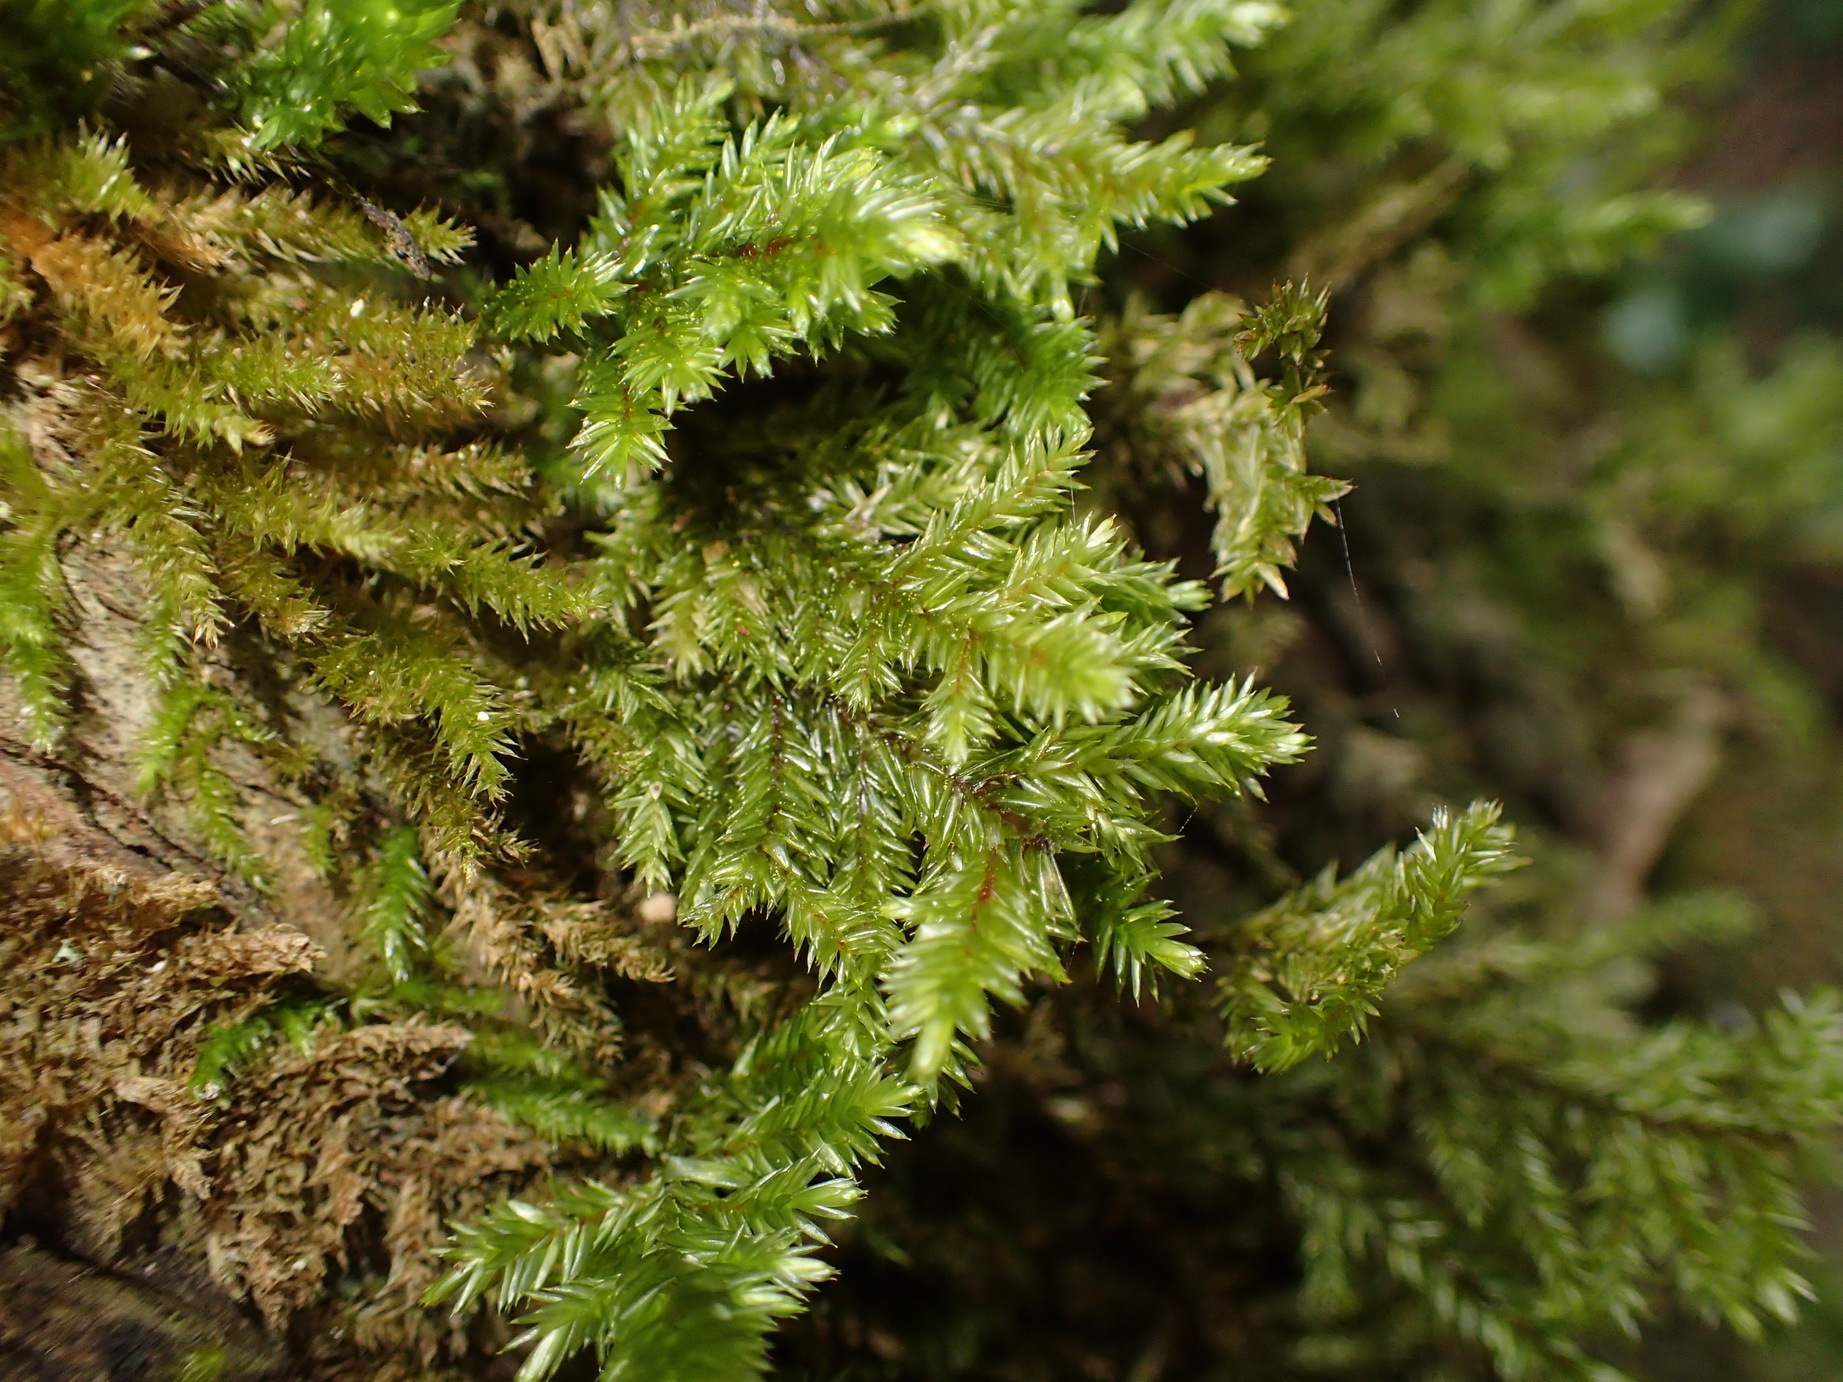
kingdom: Plantae
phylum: Bryophyta
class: Bryopsida
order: Hypnales
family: Pterobryaceae
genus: Pterobryopsis
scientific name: Pterobryopsis hoehnelii
